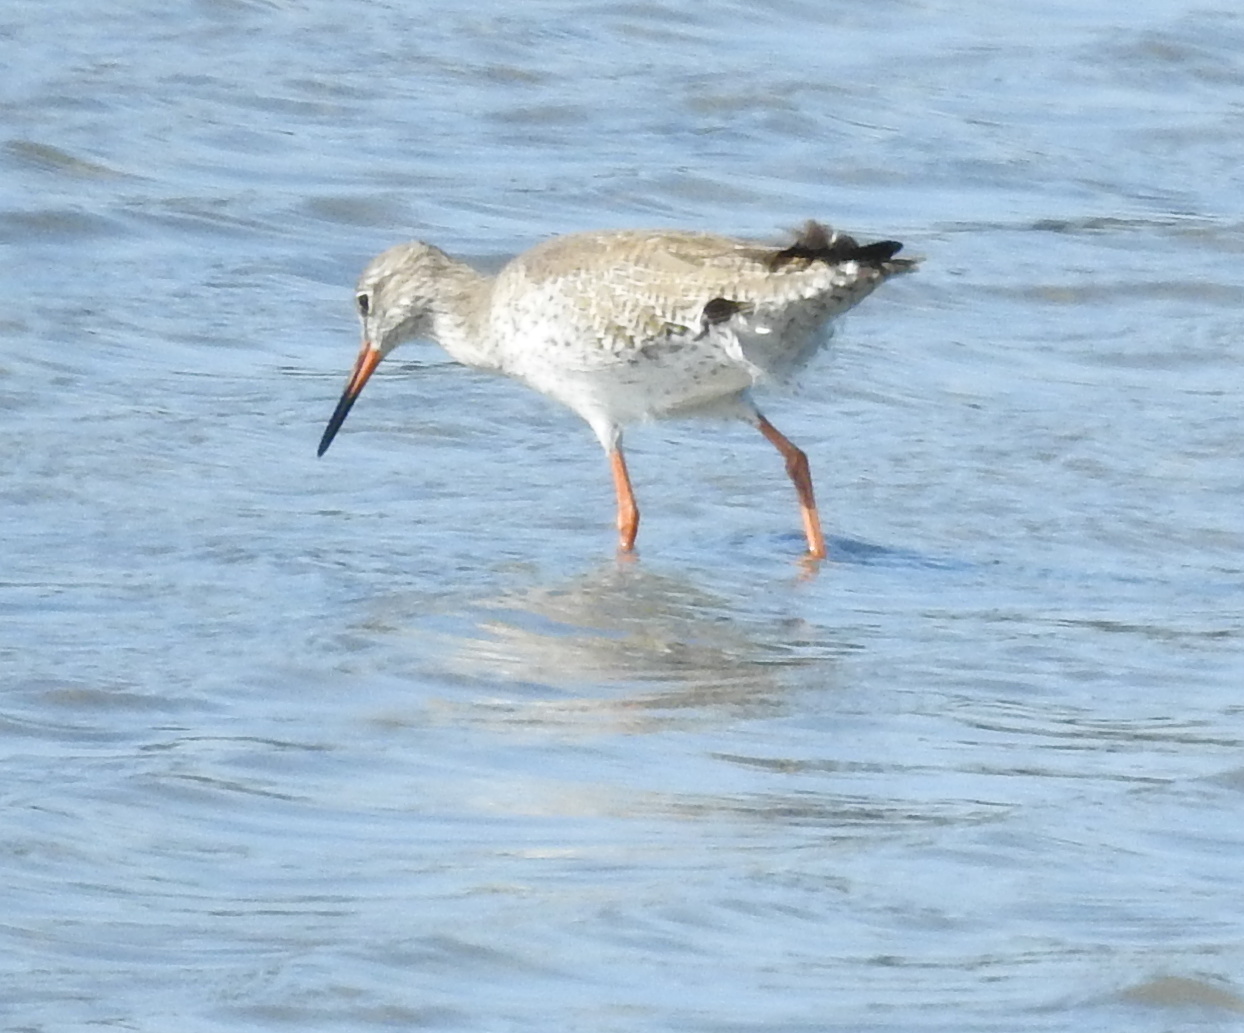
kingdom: Animalia
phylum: Chordata
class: Aves
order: Charadriiformes
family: Scolopacidae
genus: Tringa
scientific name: Tringa totanus
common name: Common redshank
